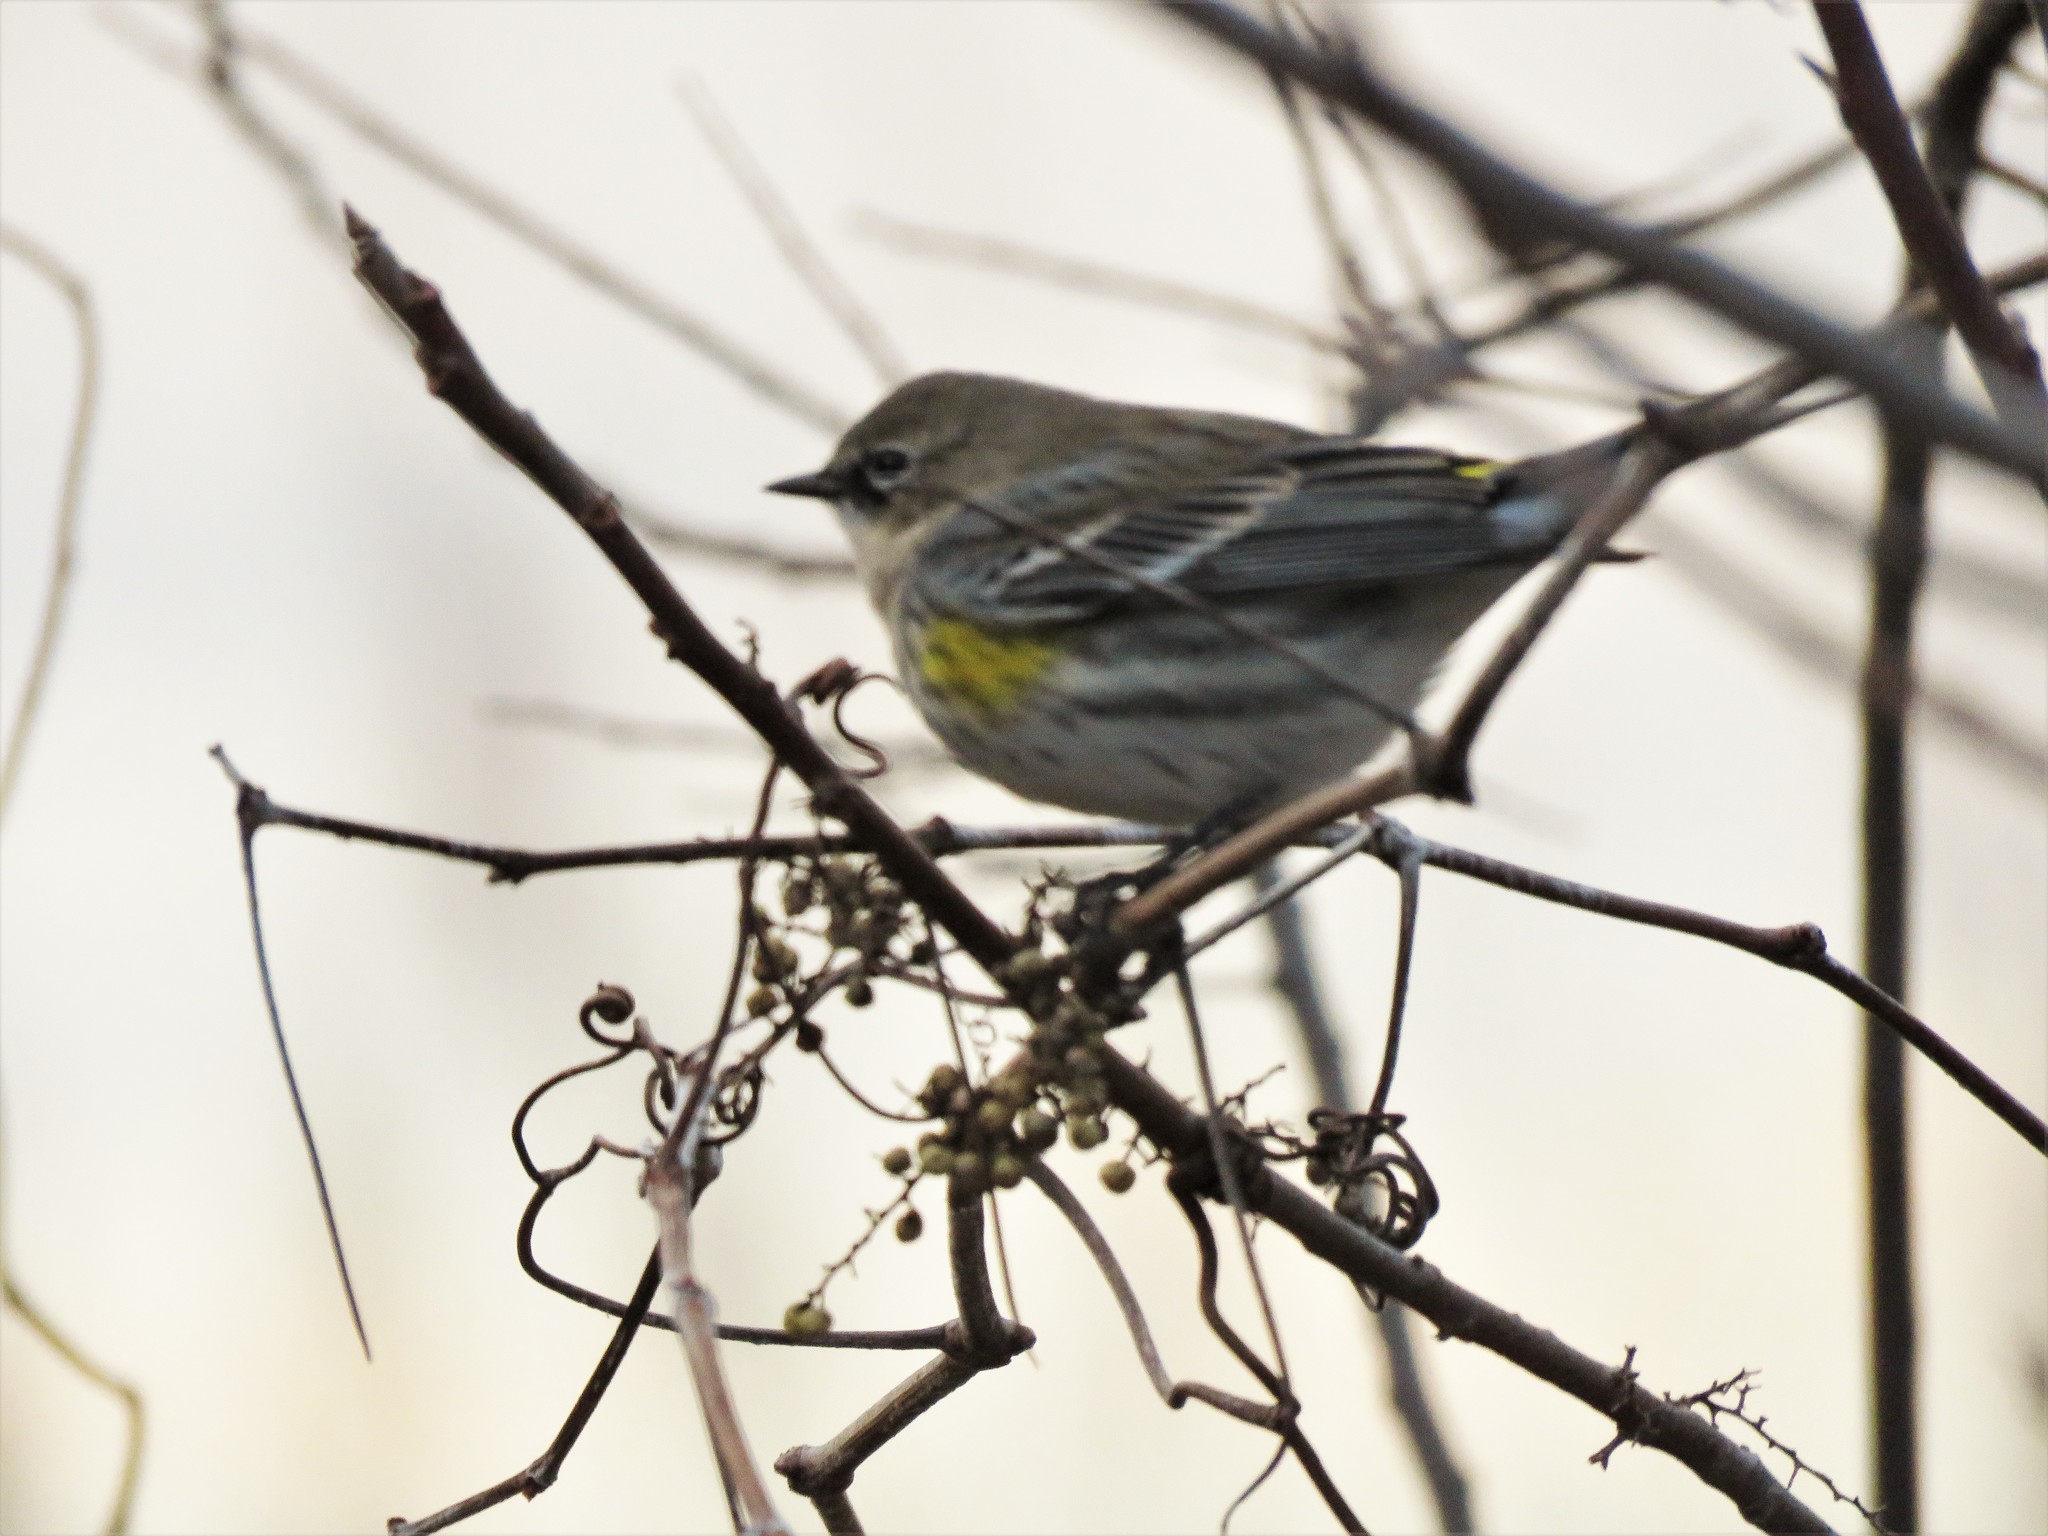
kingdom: Animalia
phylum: Chordata
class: Aves
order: Passeriformes
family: Parulidae
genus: Setophaga
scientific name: Setophaga coronata
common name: Myrtle warbler
